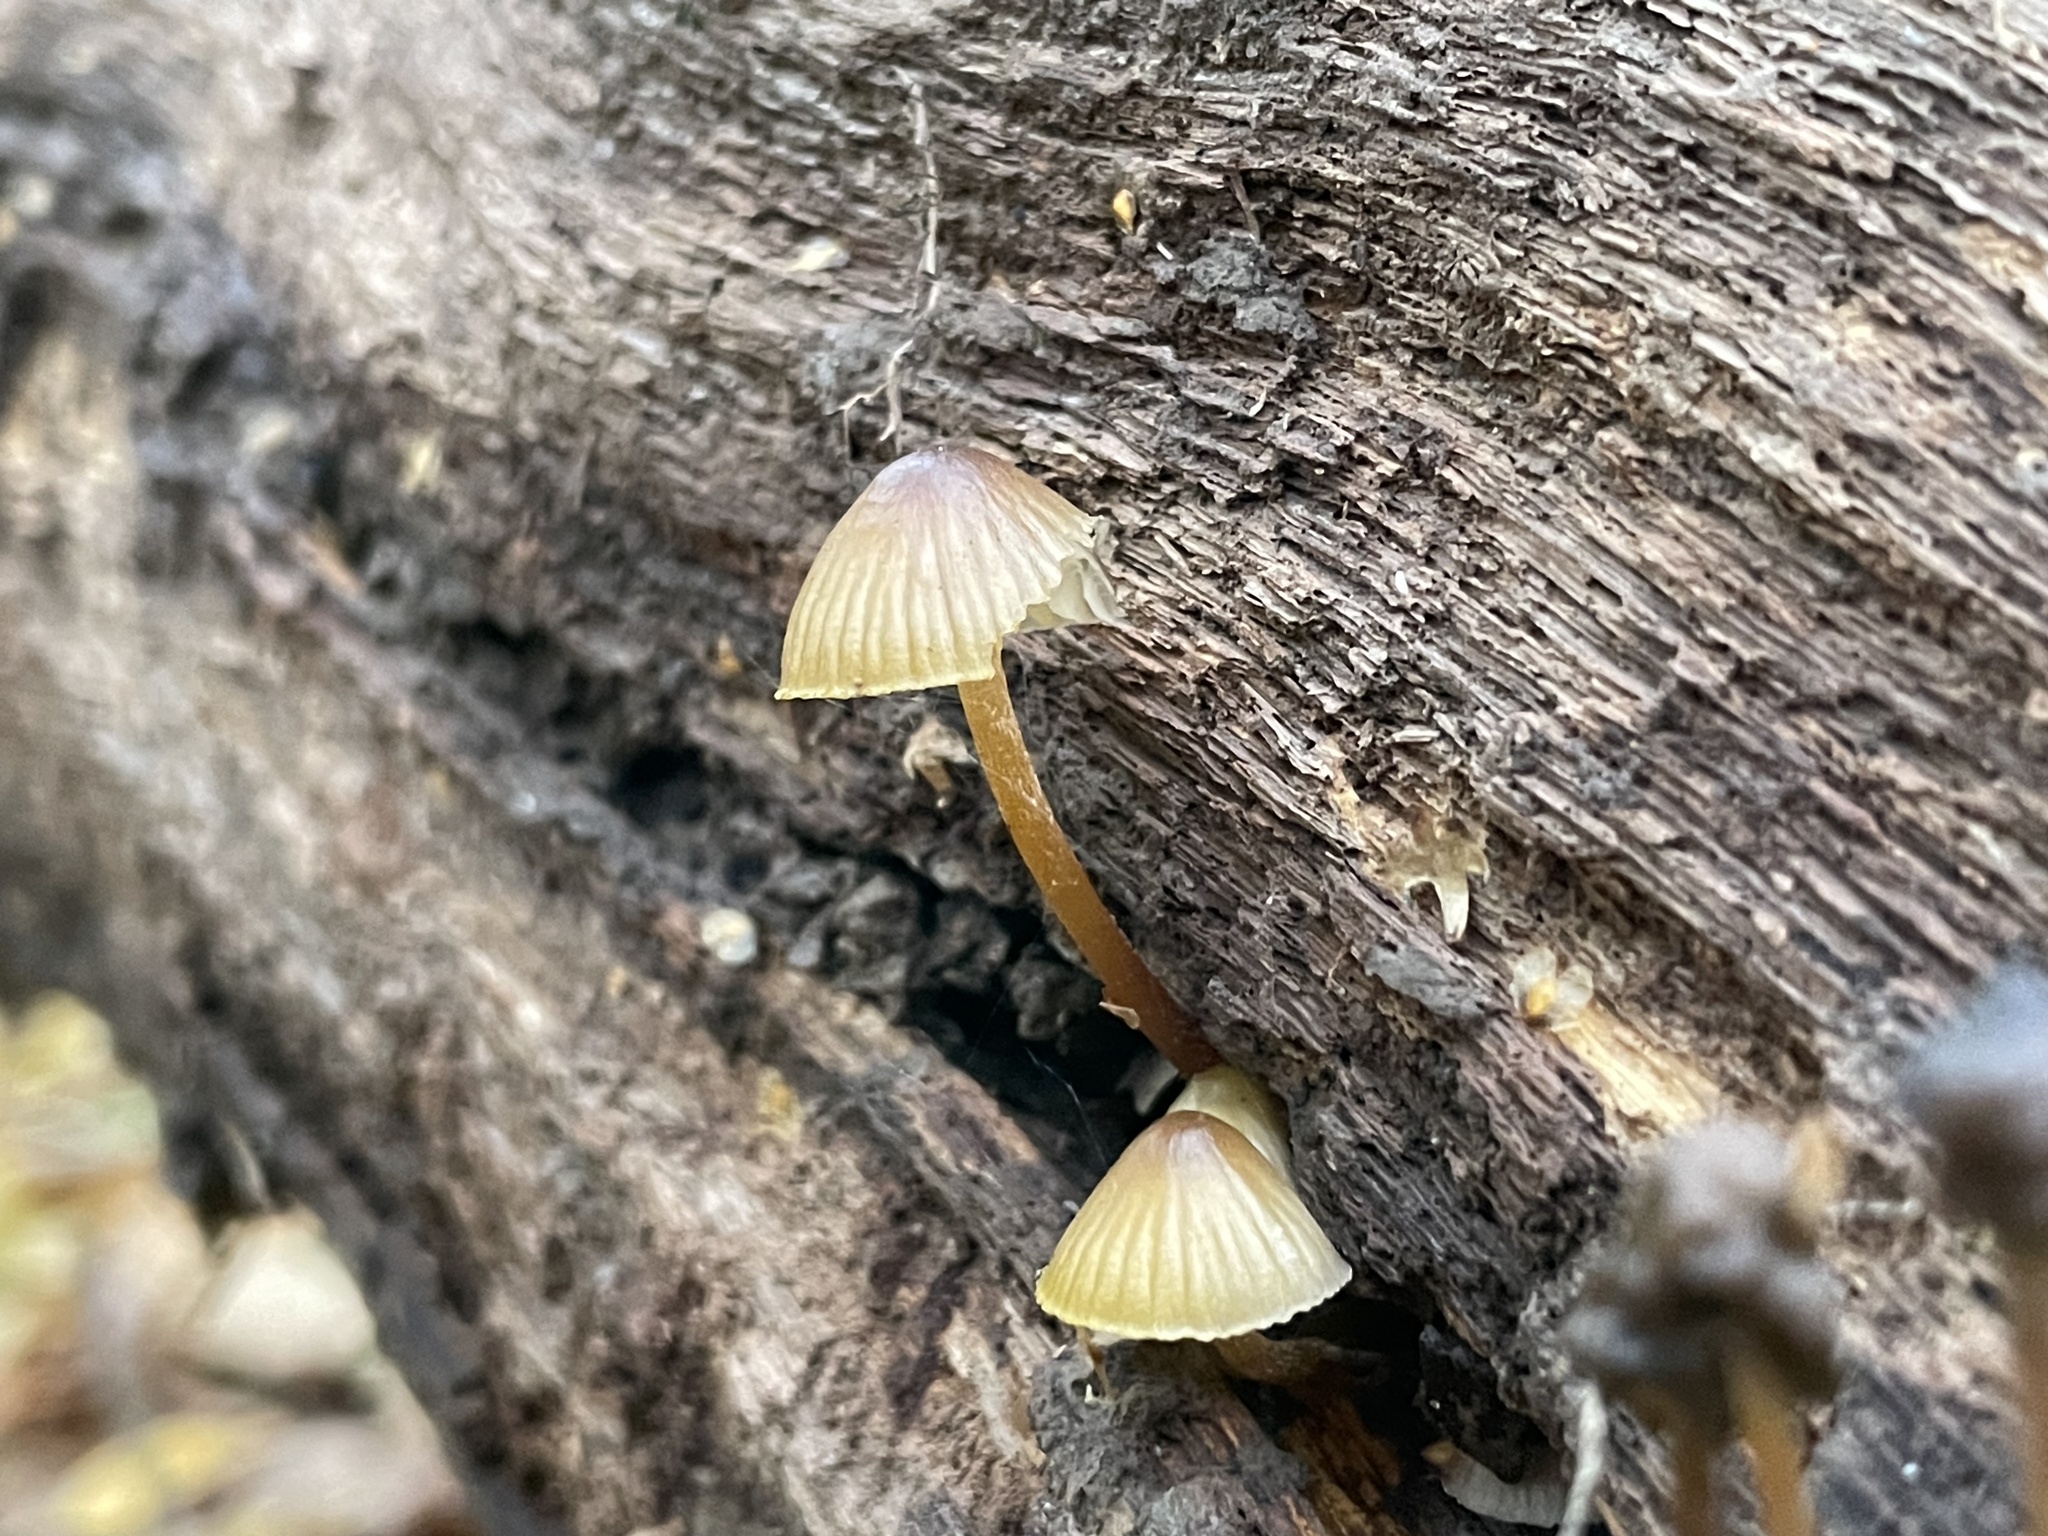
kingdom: Fungi
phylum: Basidiomycota
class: Agaricomycetes
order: Agaricales
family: Mycenaceae
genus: Mycena
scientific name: Mycena inclinata
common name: Clustered bonnet
